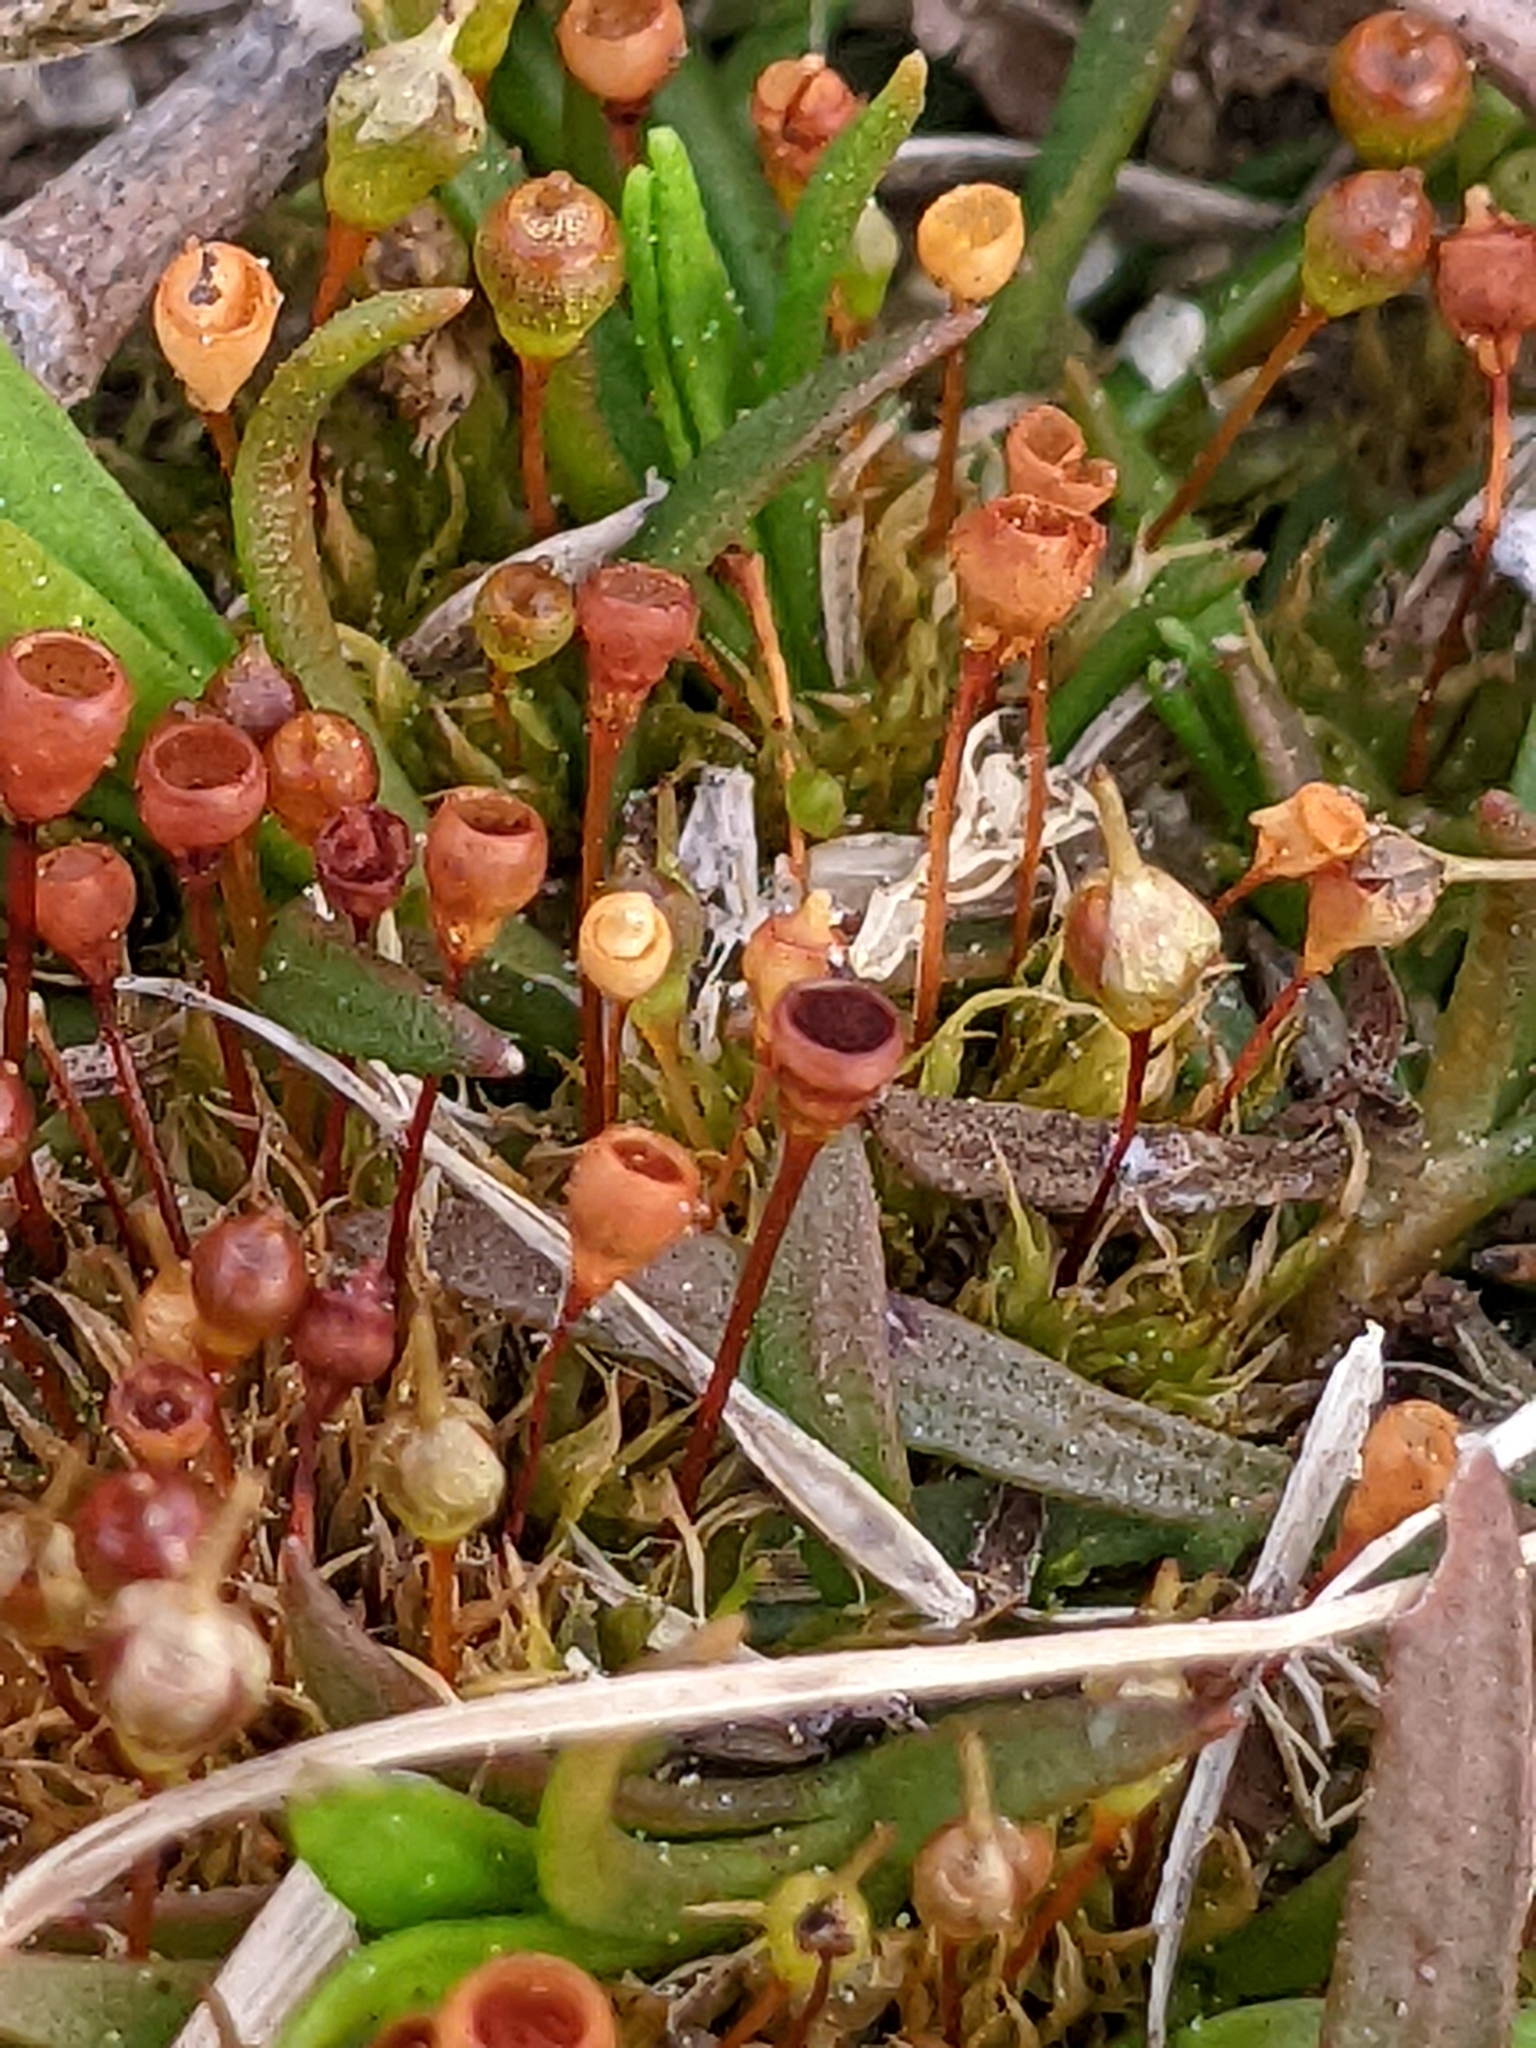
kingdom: Plantae
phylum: Bryophyta
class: Bryopsida
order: Funariales
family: Funariaceae
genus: Physcomitrium
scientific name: Physcomitrium pyriforme
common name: Common bladder-moss
